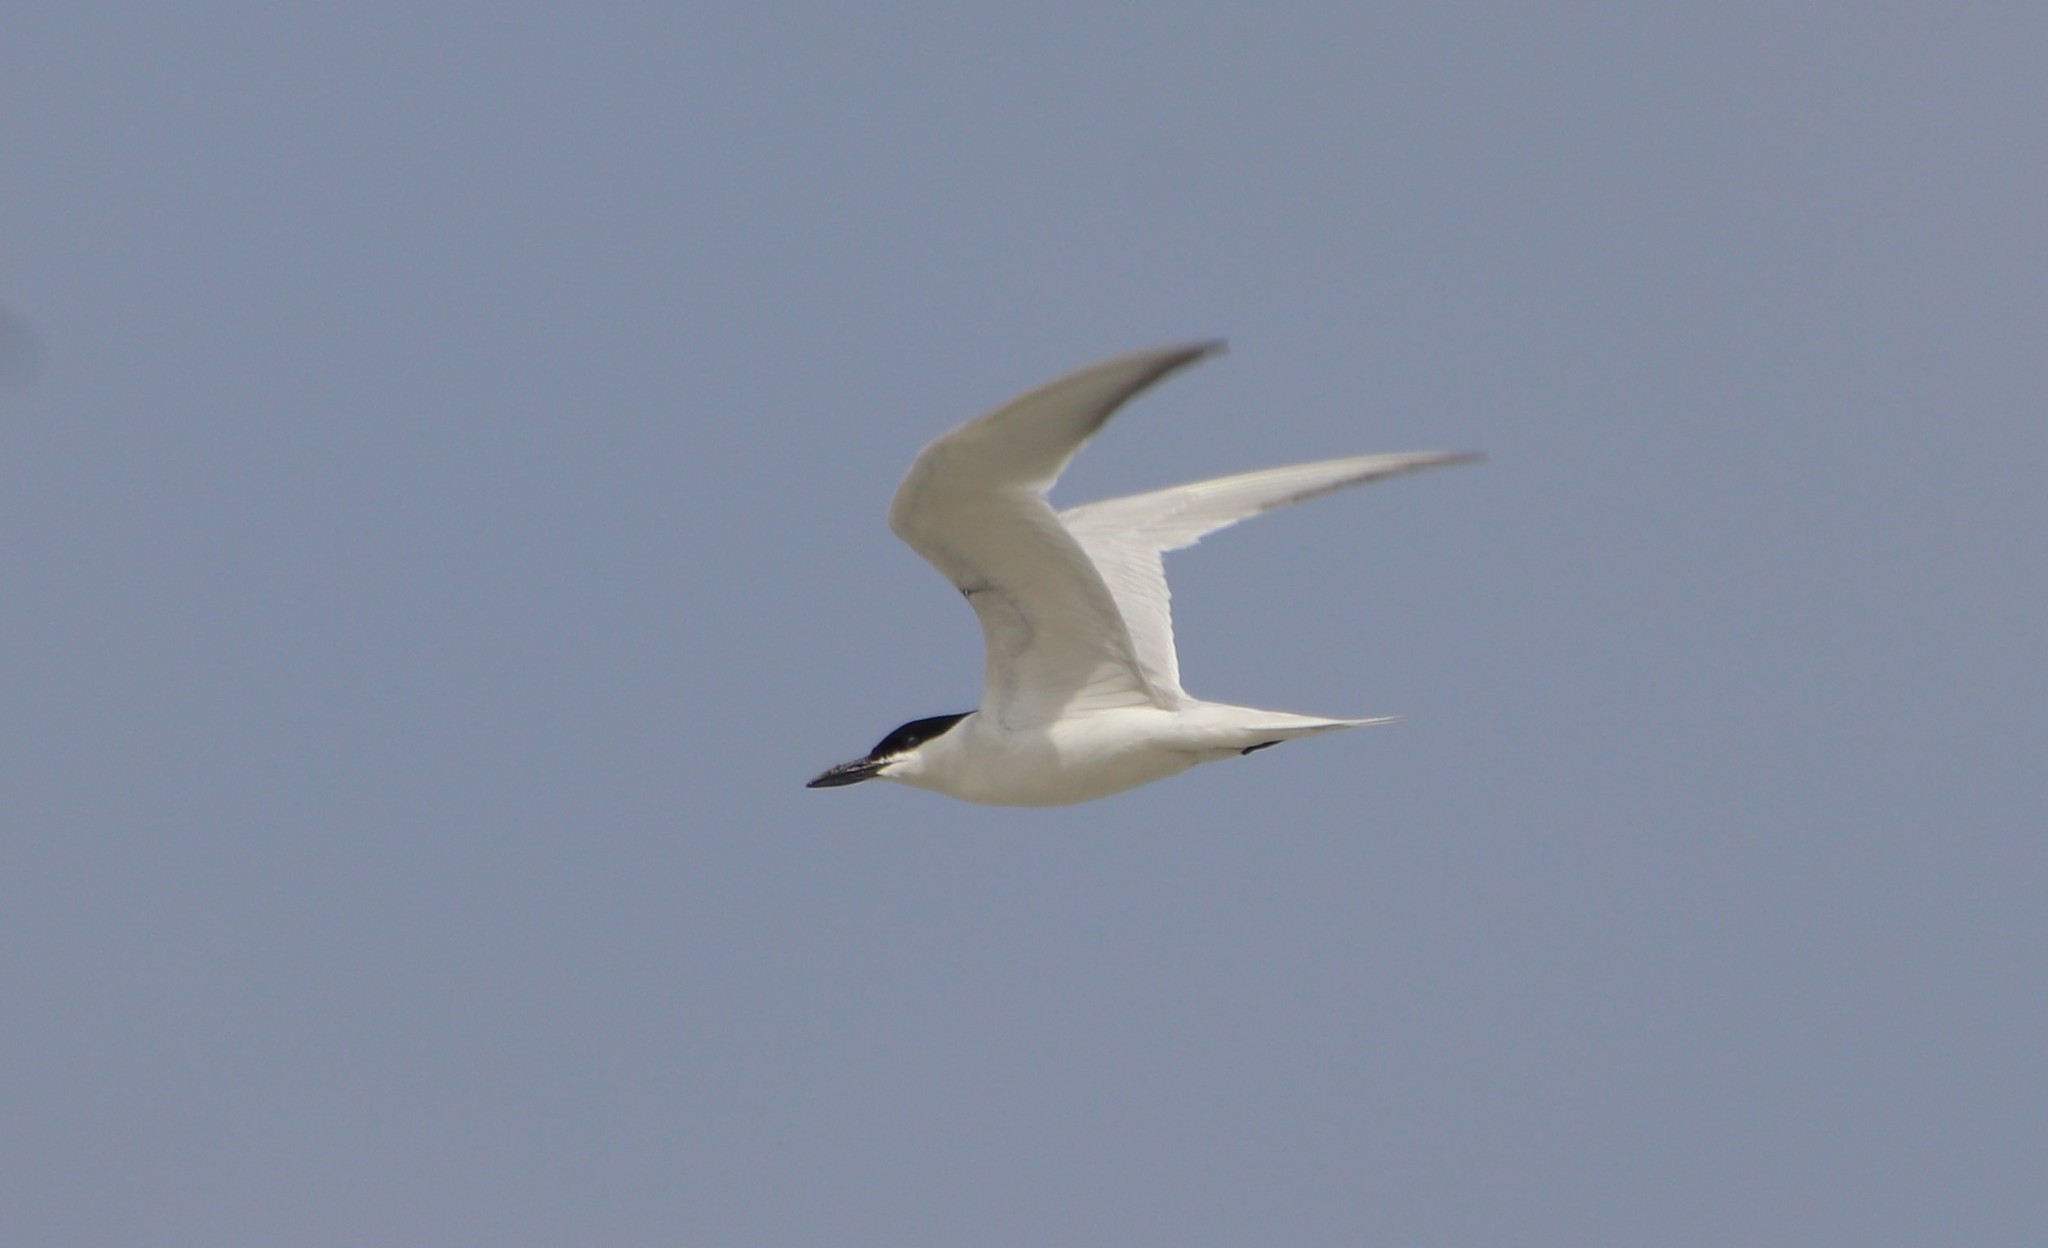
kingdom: Animalia
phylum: Chordata
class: Aves
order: Charadriiformes
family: Laridae
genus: Gelochelidon
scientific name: Gelochelidon nilotica
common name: Gull-billed tern
